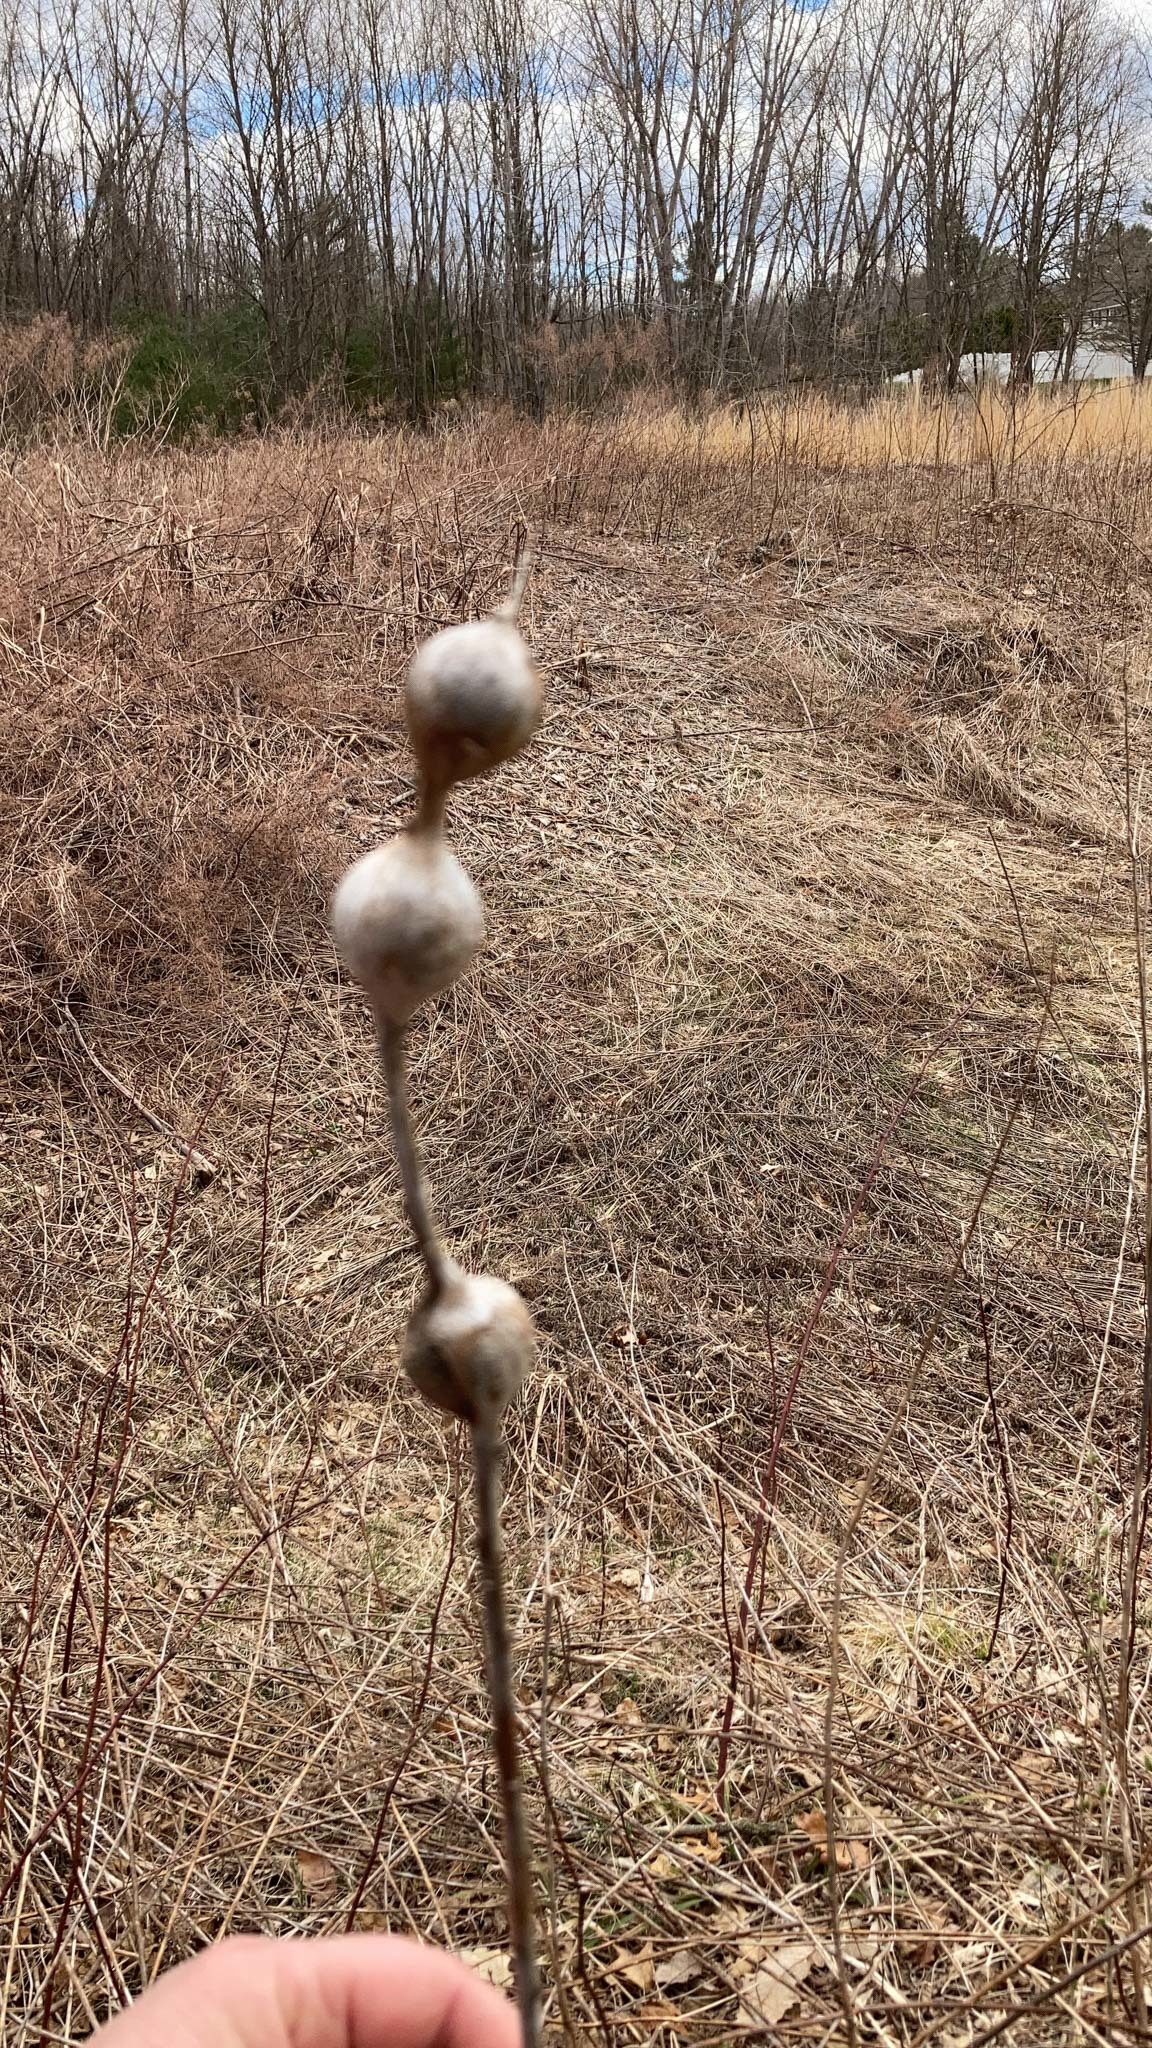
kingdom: Animalia
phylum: Arthropoda
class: Insecta
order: Diptera
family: Tephritidae
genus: Eurosta
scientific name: Eurosta solidaginis
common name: Goldenrod gall fly
